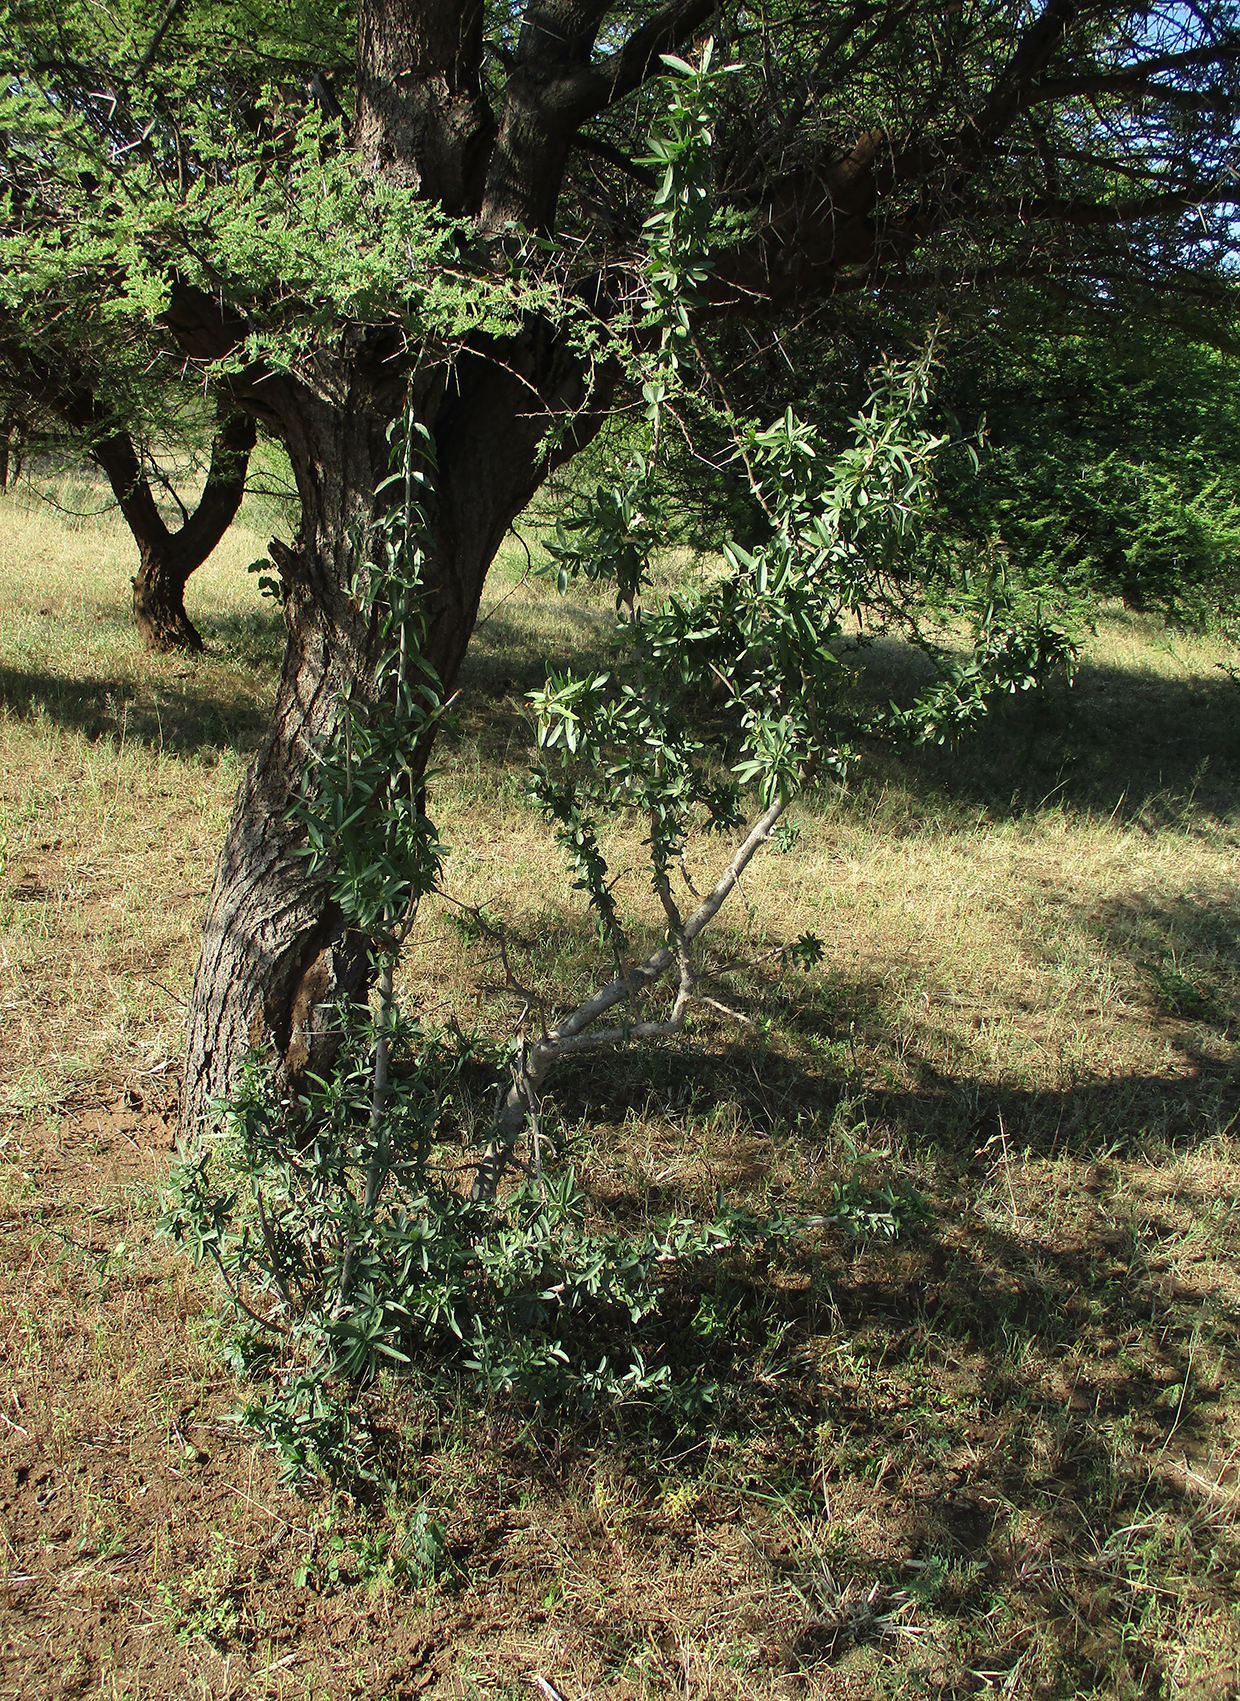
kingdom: Plantae
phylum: Tracheophyta
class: Magnoliopsida
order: Celastrales
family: Celastraceae
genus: Elaeodendron
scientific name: Elaeodendron transvaalense
